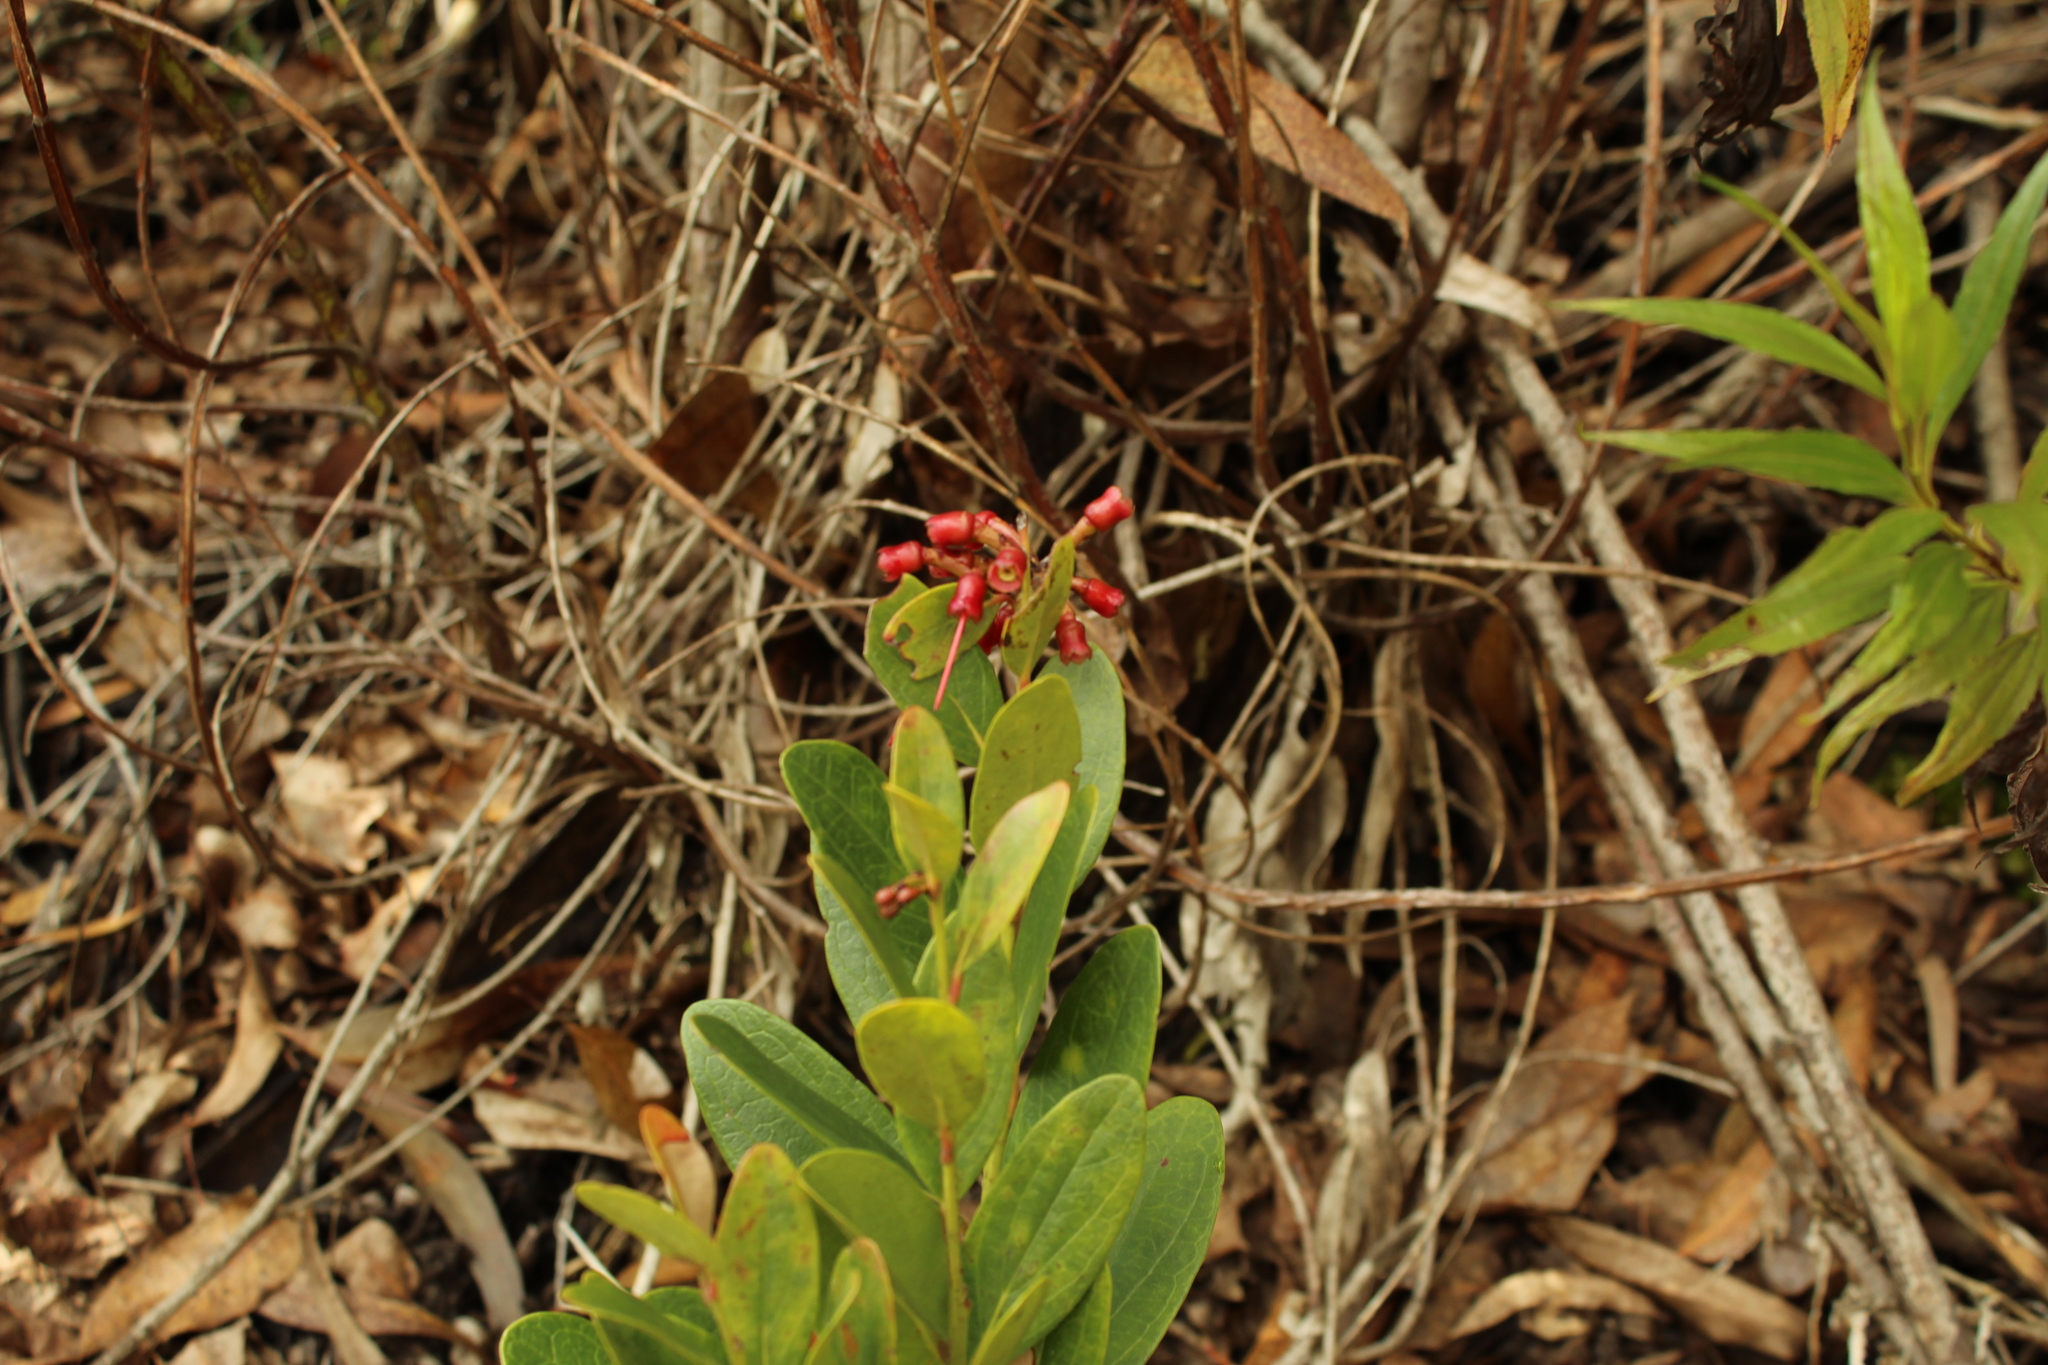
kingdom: Plantae
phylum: Tracheophyta
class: Magnoliopsida
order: Ericales
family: Ericaceae
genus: Macleania
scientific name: Macleania rupestris
